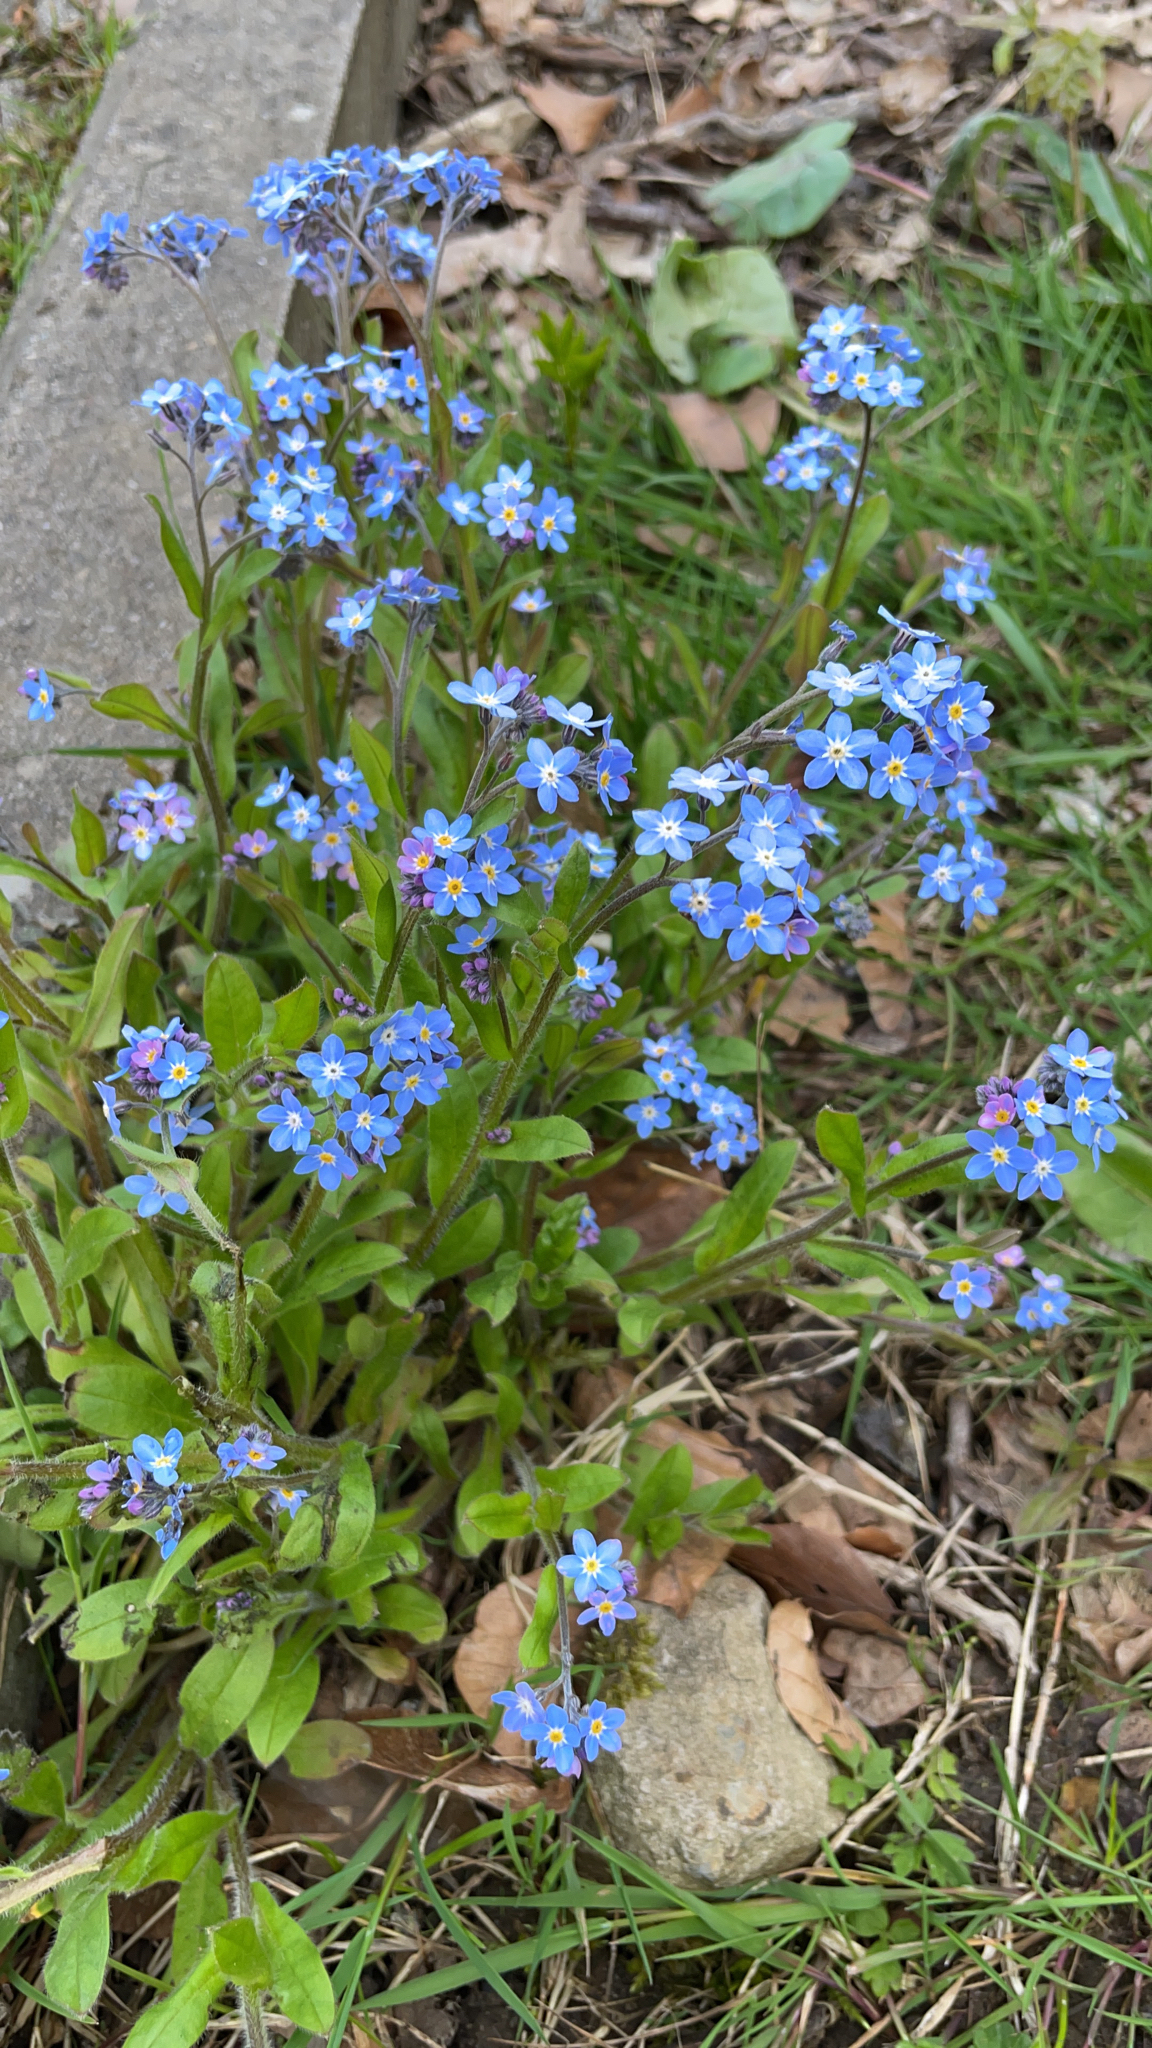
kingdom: Plantae
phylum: Tracheophyta
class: Magnoliopsida
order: Boraginales
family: Boraginaceae
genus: Myosotis
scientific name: Myosotis sylvatica
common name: Wood forget-me-not
